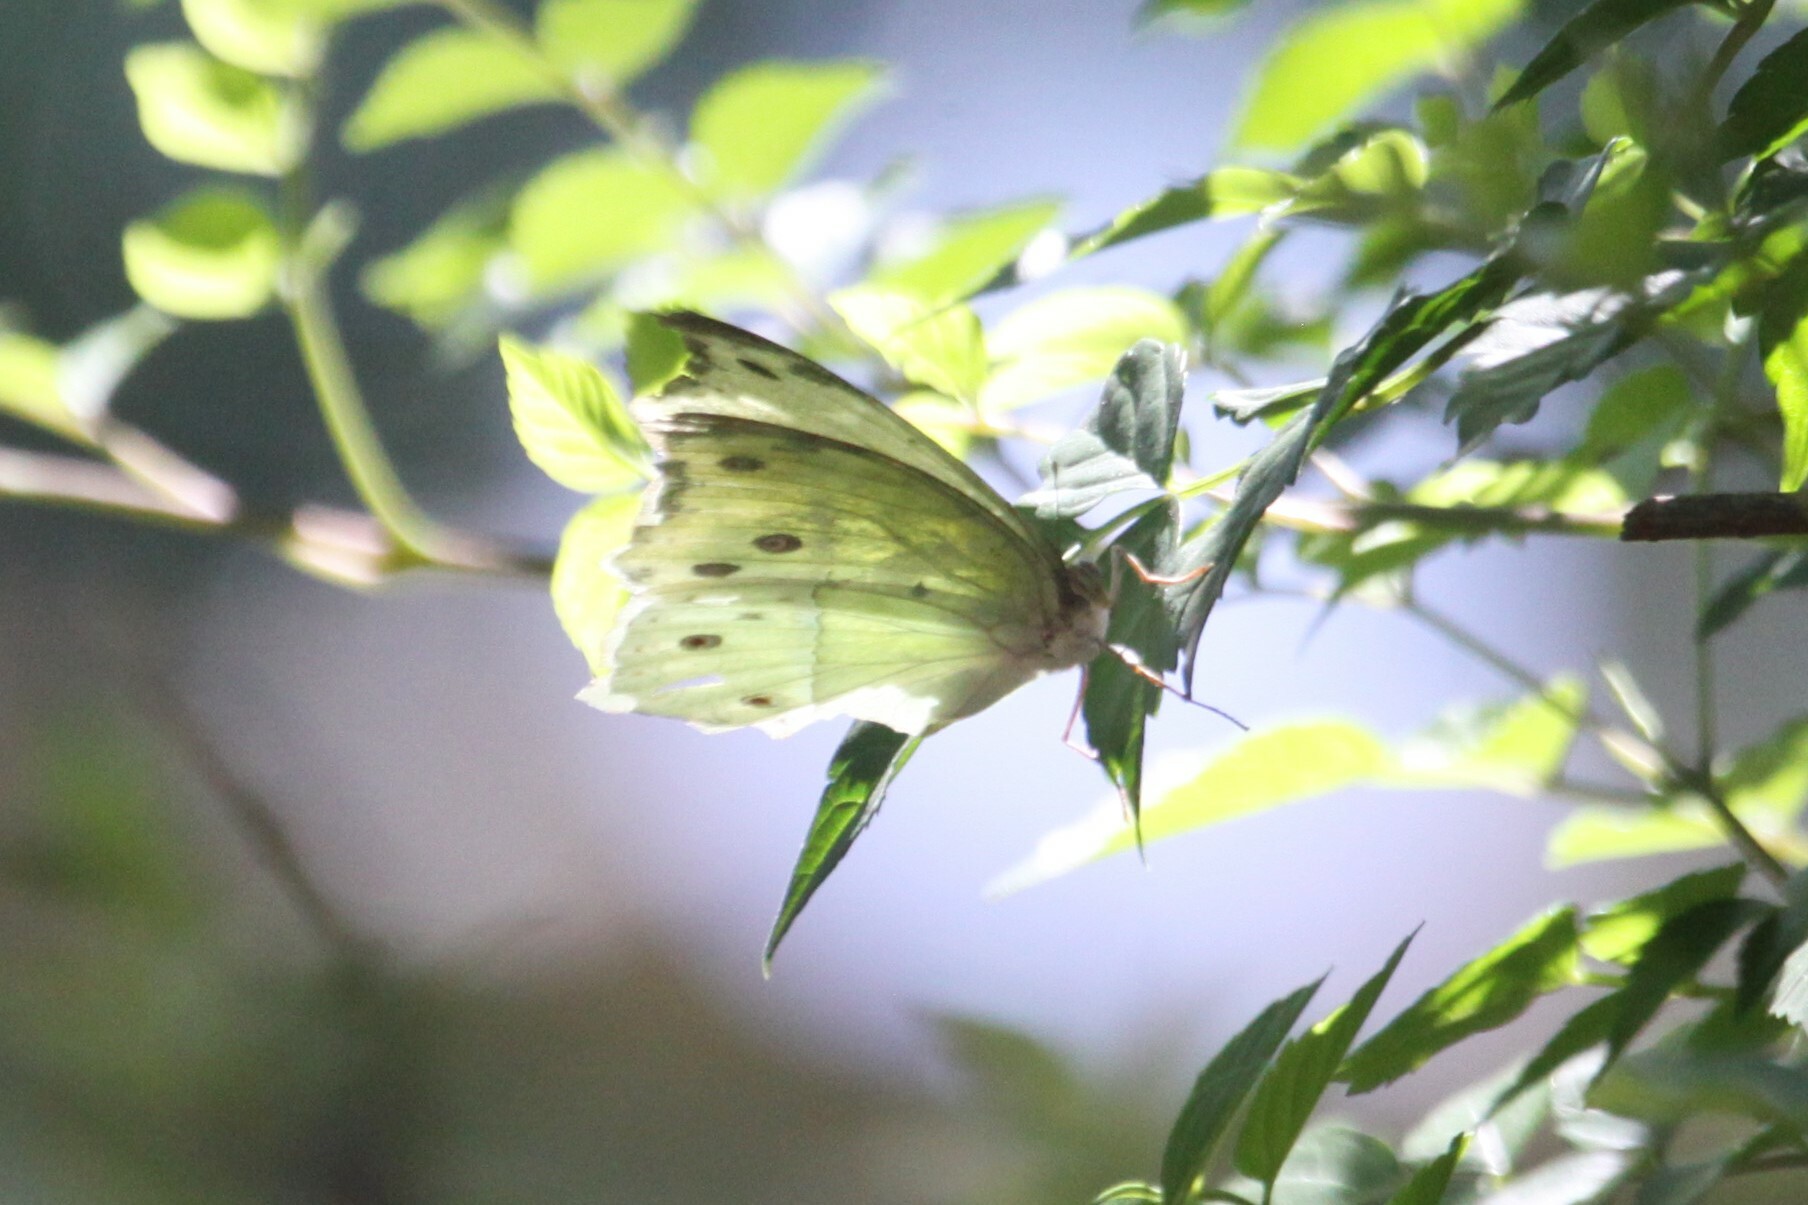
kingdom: Animalia
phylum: Arthropoda
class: Insecta
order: Lepidoptera
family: Nymphalidae
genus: Salamis
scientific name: Salamis Protogoniomorpha parhassus
